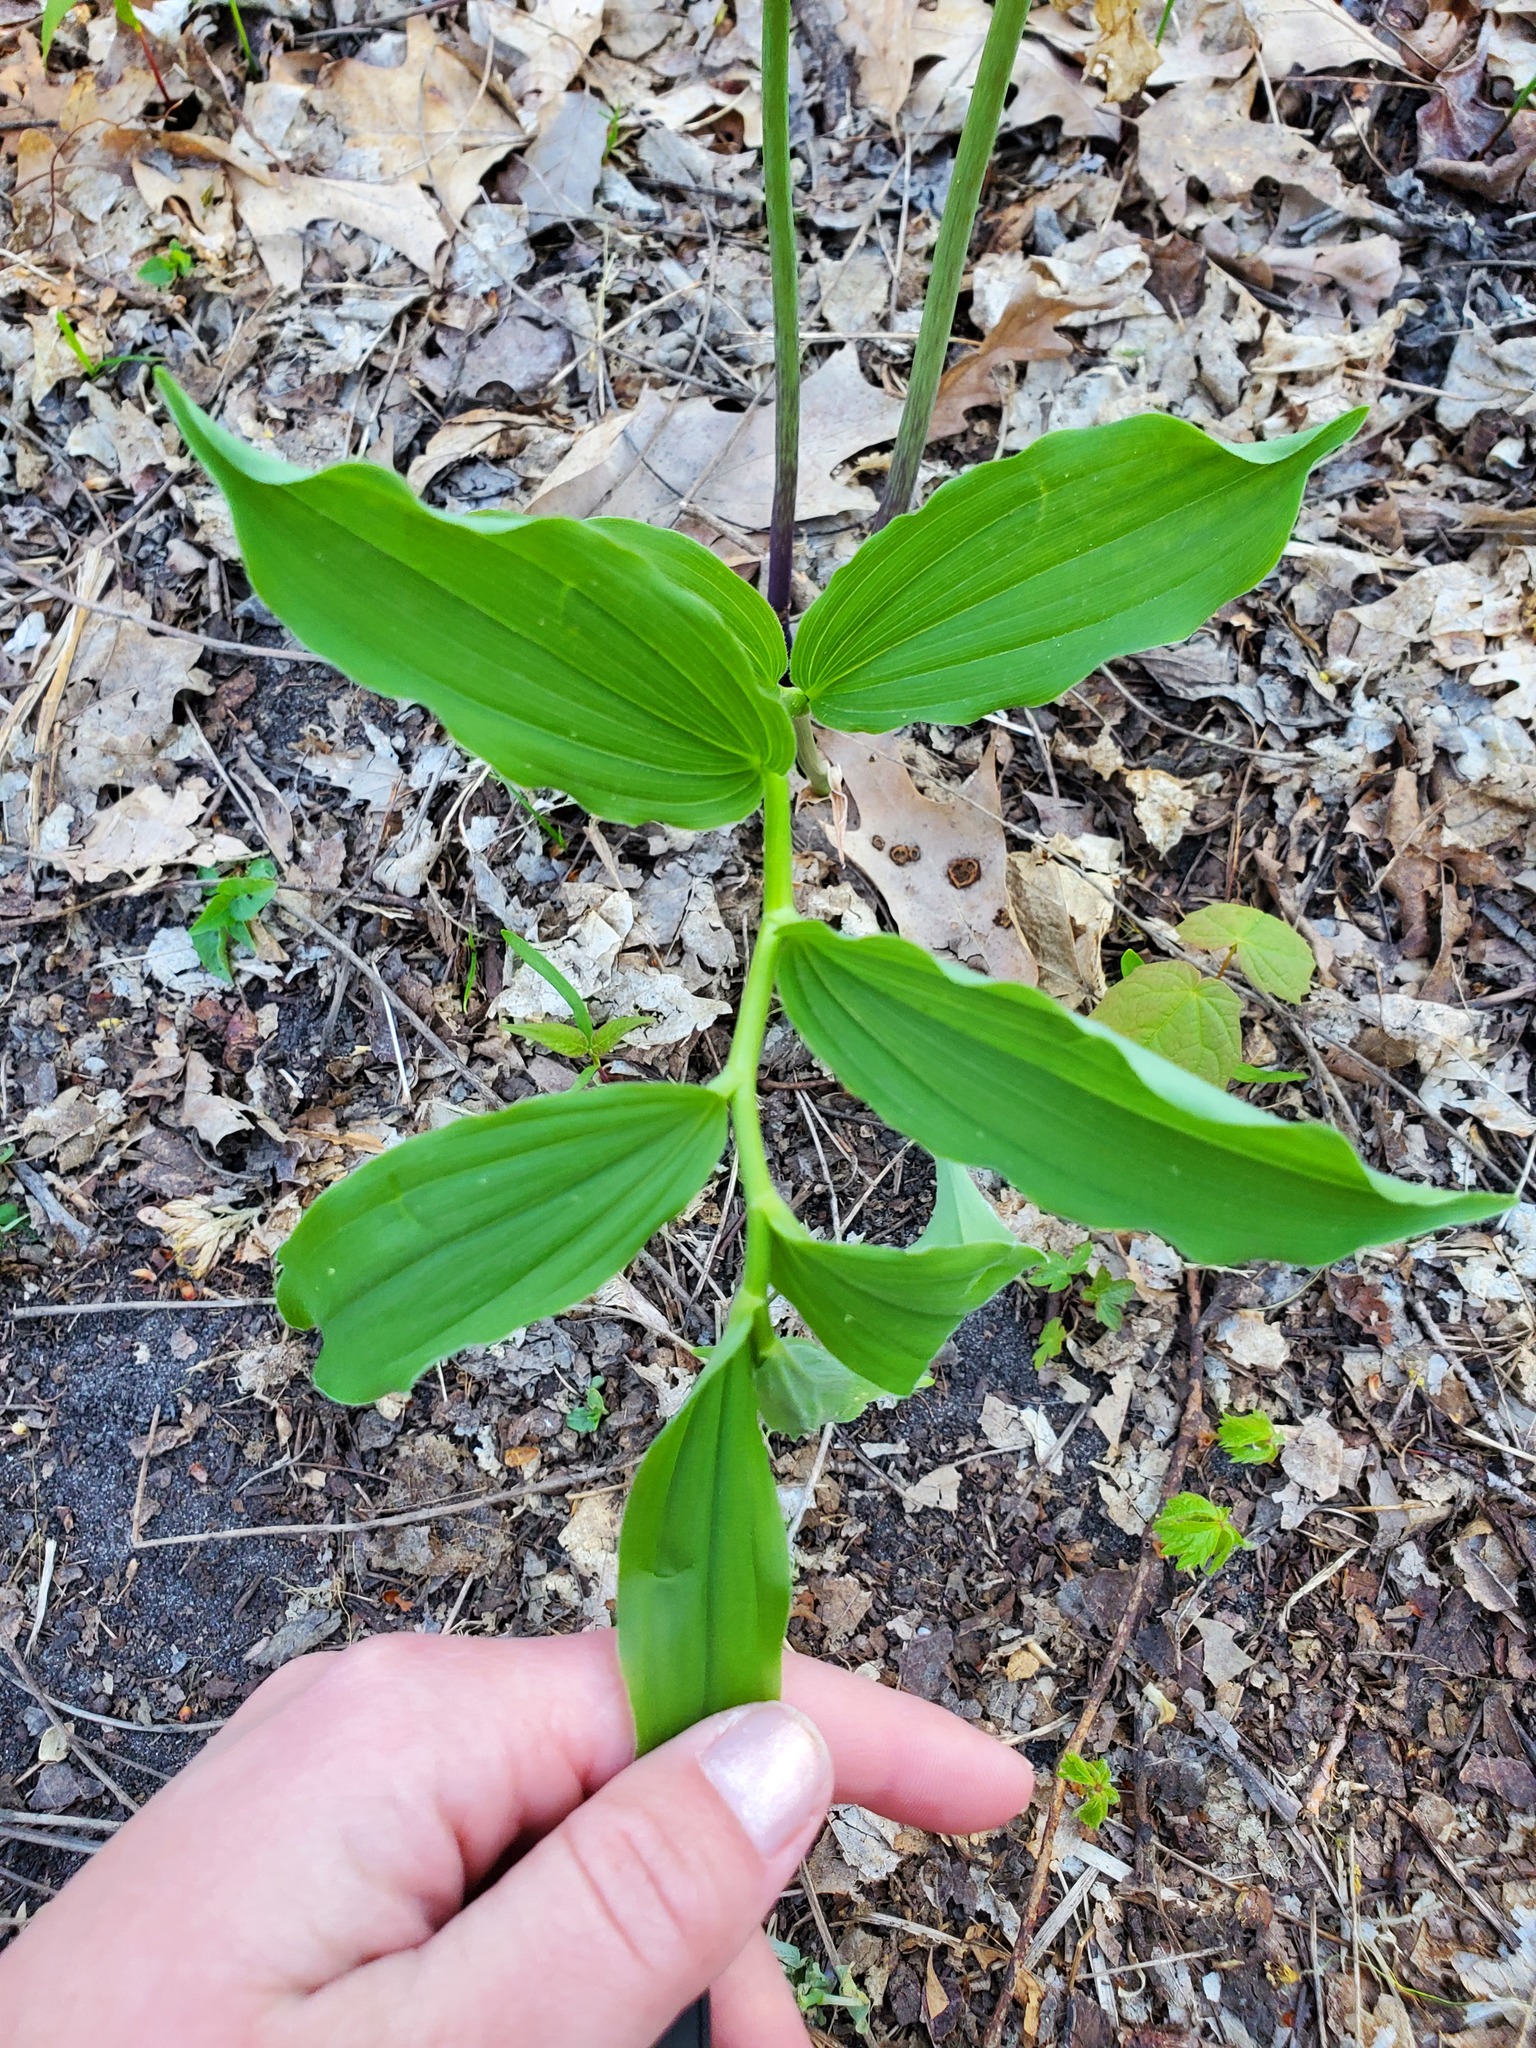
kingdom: Plantae
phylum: Tracheophyta
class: Liliopsida
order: Asparagales
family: Asparagaceae
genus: Maianthemum
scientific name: Maianthemum racemosum
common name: False spikenard
